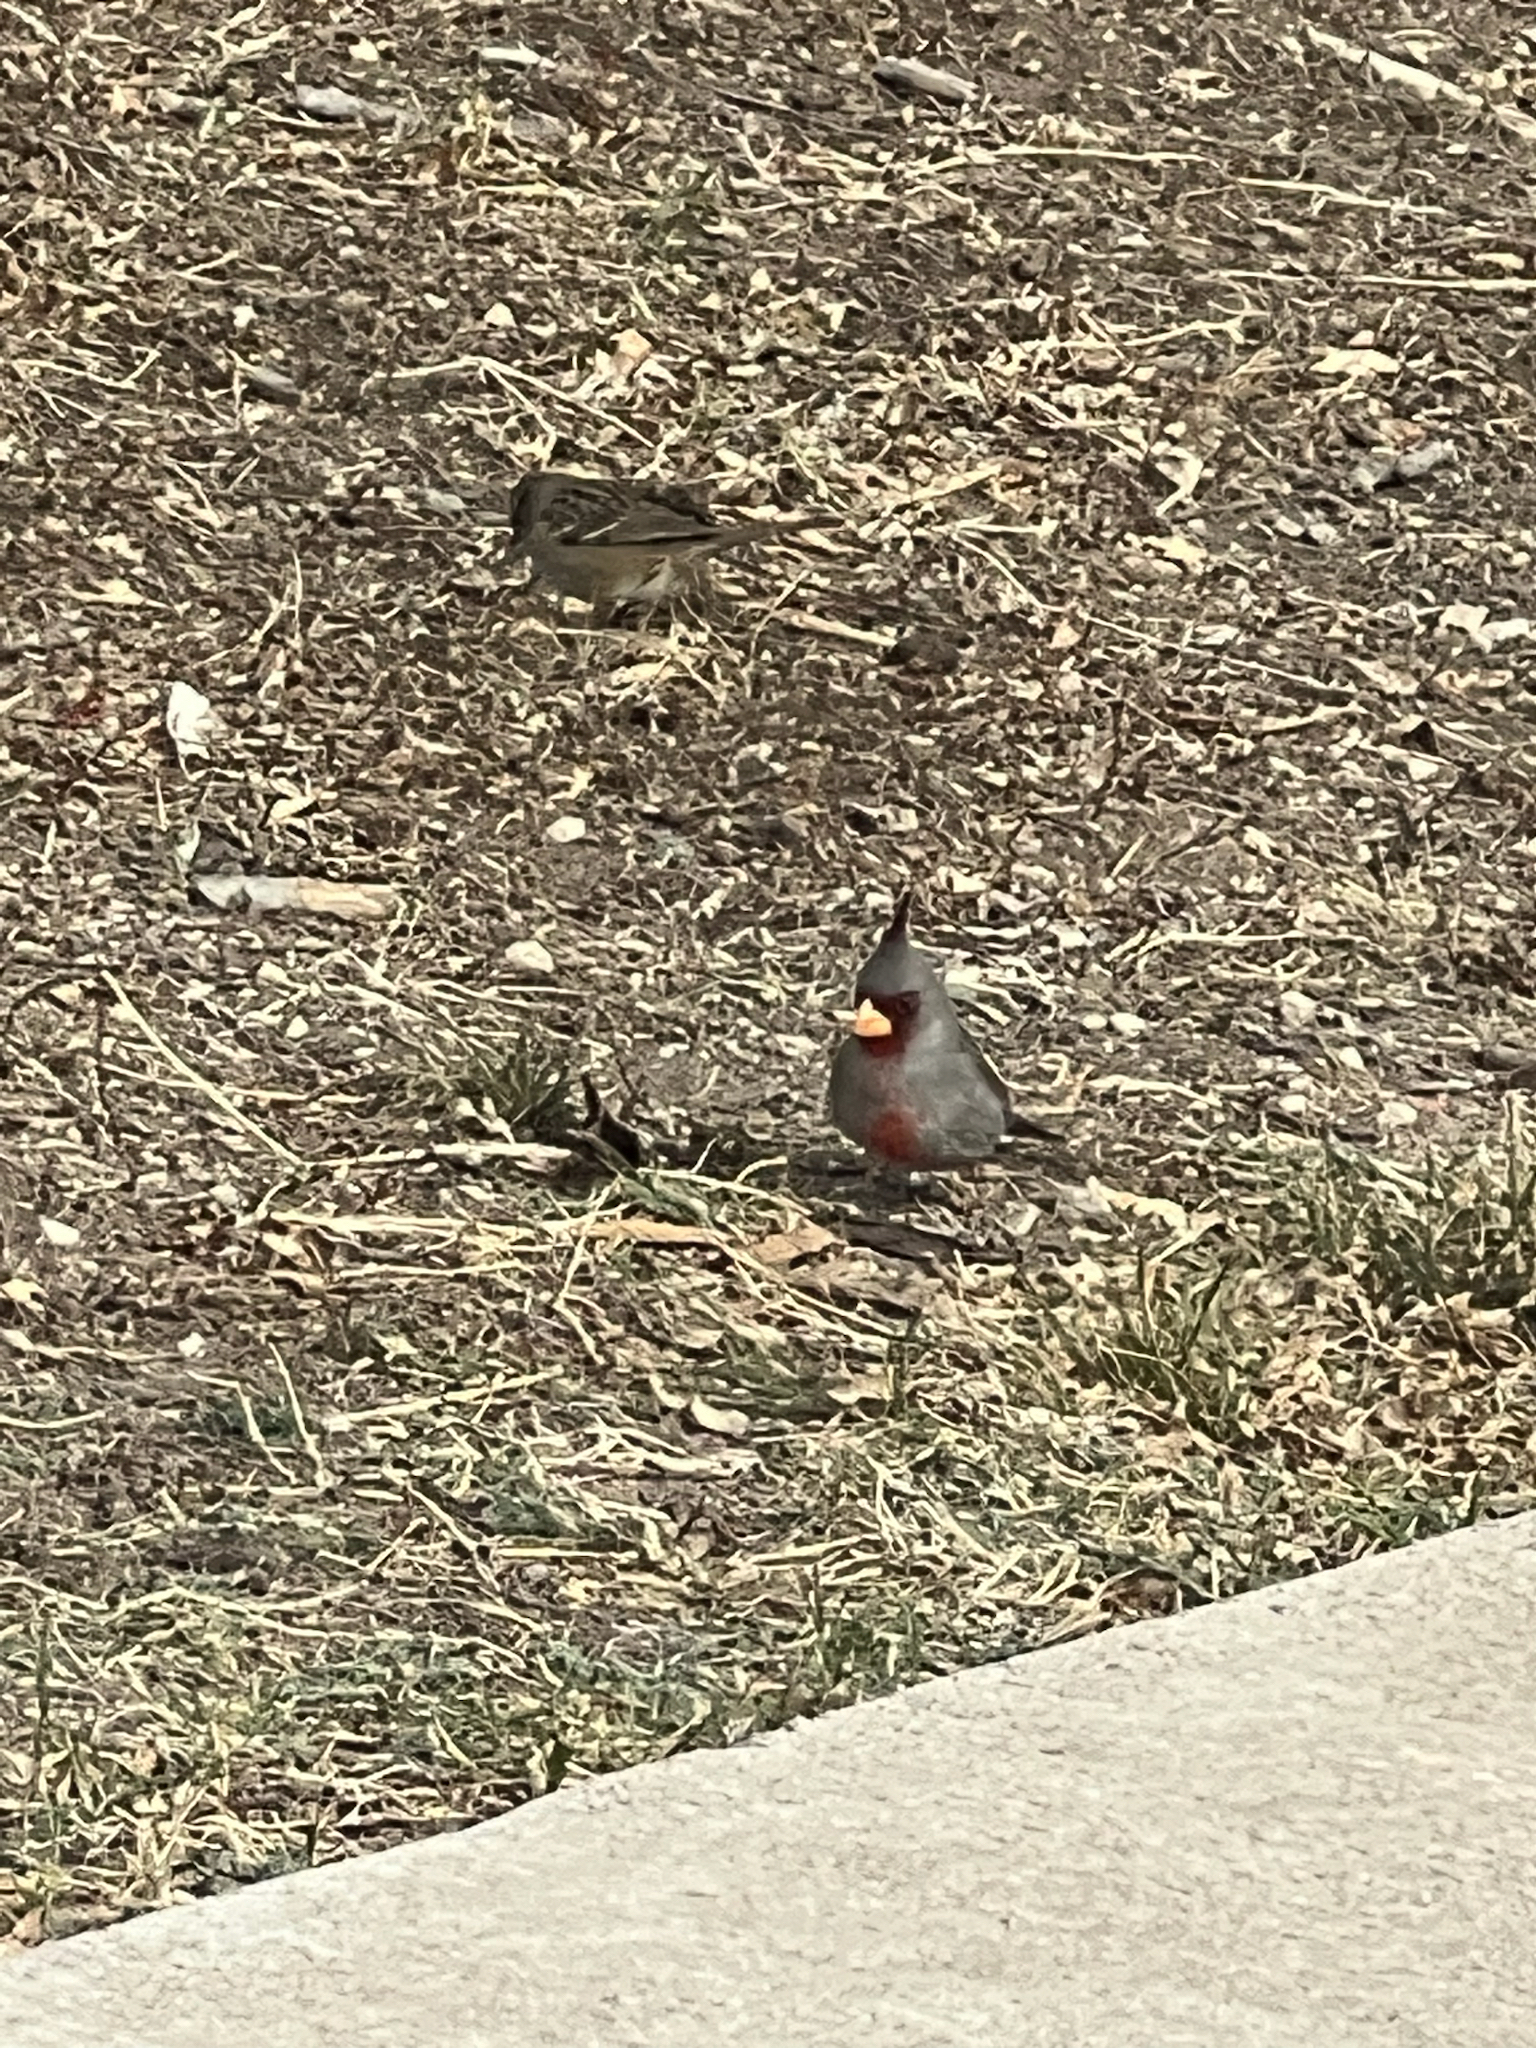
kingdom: Animalia
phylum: Chordata
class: Aves
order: Passeriformes
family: Cardinalidae
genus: Cardinalis
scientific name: Cardinalis sinuatus
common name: Pyrrhuloxia
